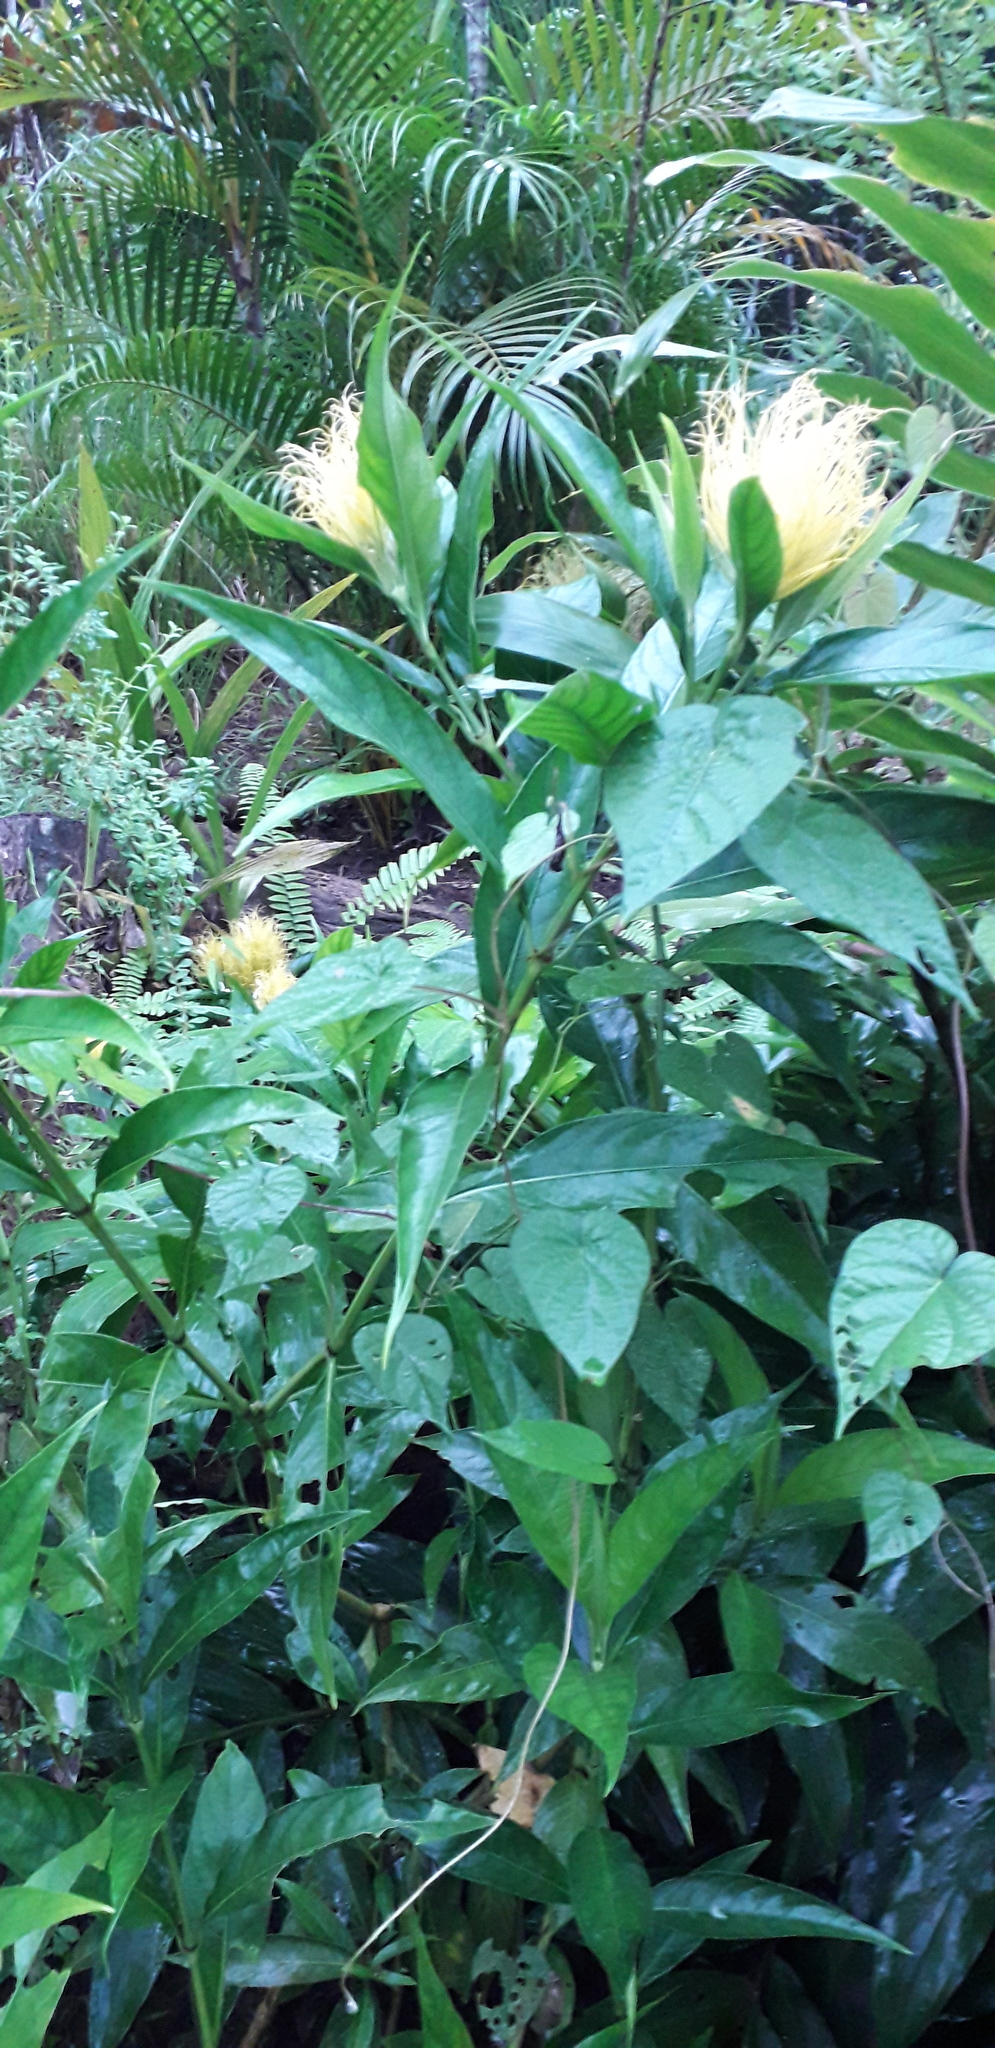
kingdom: Plantae
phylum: Tracheophyta
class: Magnoliopsida
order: Myrtales
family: Myrtaceae
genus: Syzygium
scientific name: Syzygium jambos
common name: Malabar plum
